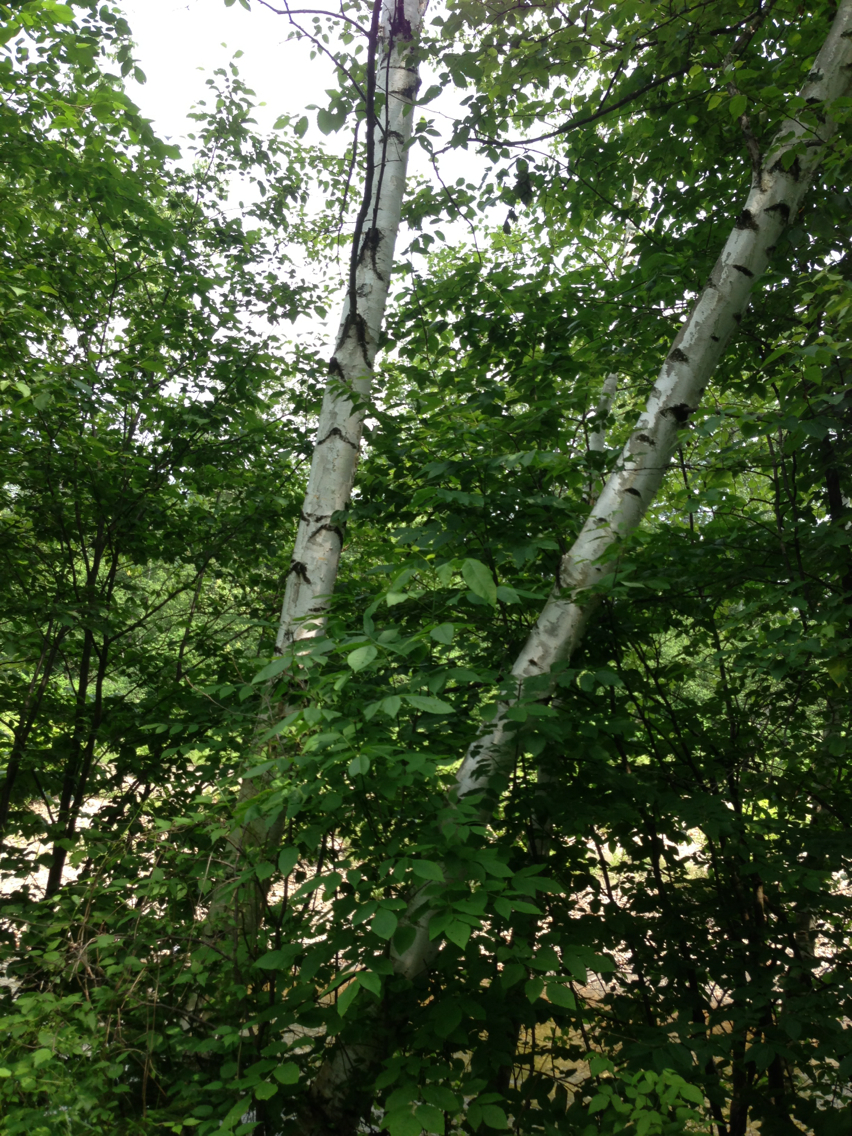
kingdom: Plantae
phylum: Tracheophyta
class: Magnoliopsida
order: Fagales
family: Betulaceae
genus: Betula
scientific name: Betula populifolia
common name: Fire birch
